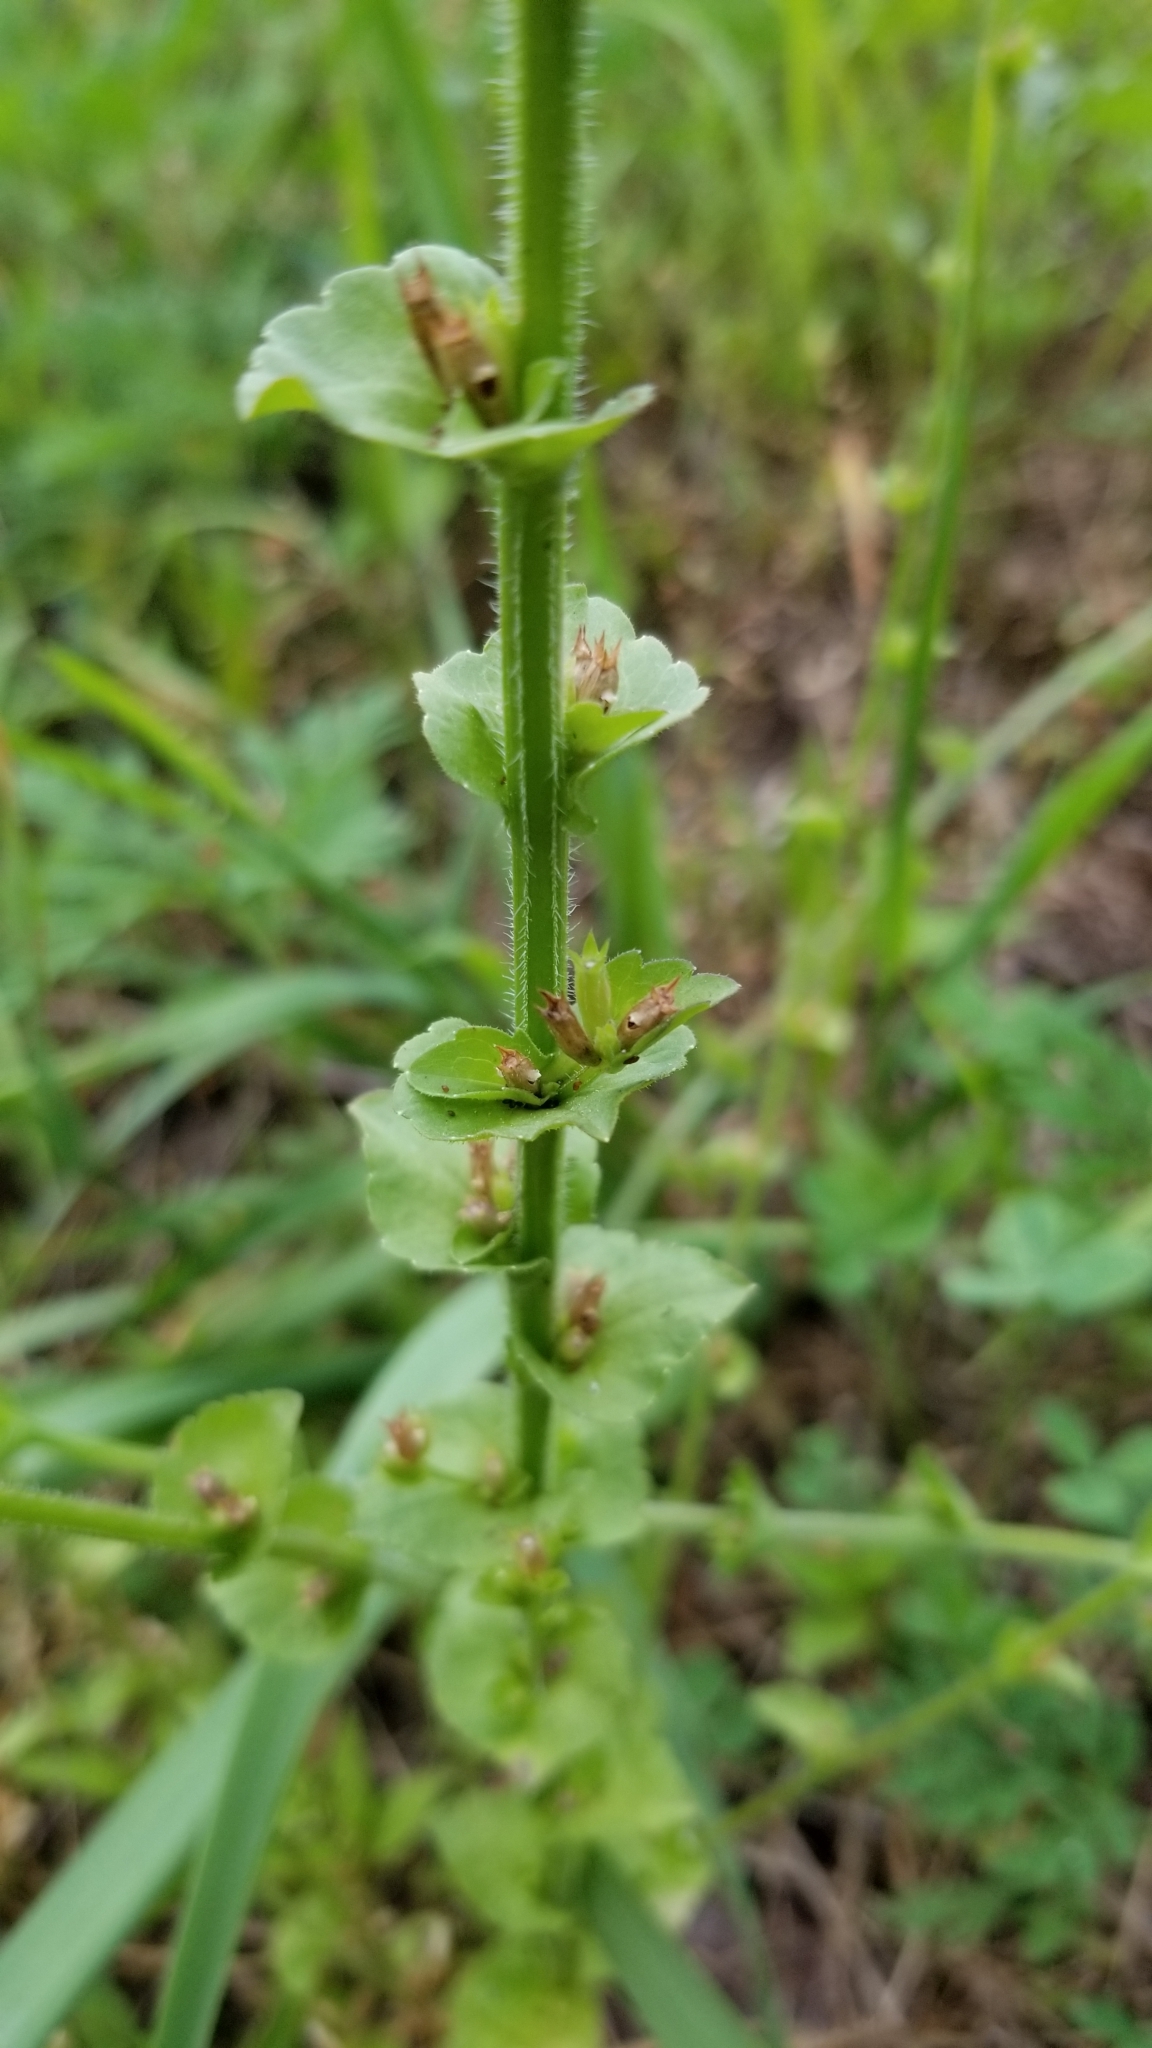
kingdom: Plantae
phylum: Tracheophyta
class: Magnoliopsida
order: Asterales
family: Campanulaceae
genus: Triodanis
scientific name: Triodanis perfoliata
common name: Clasping venus' looking-glass
